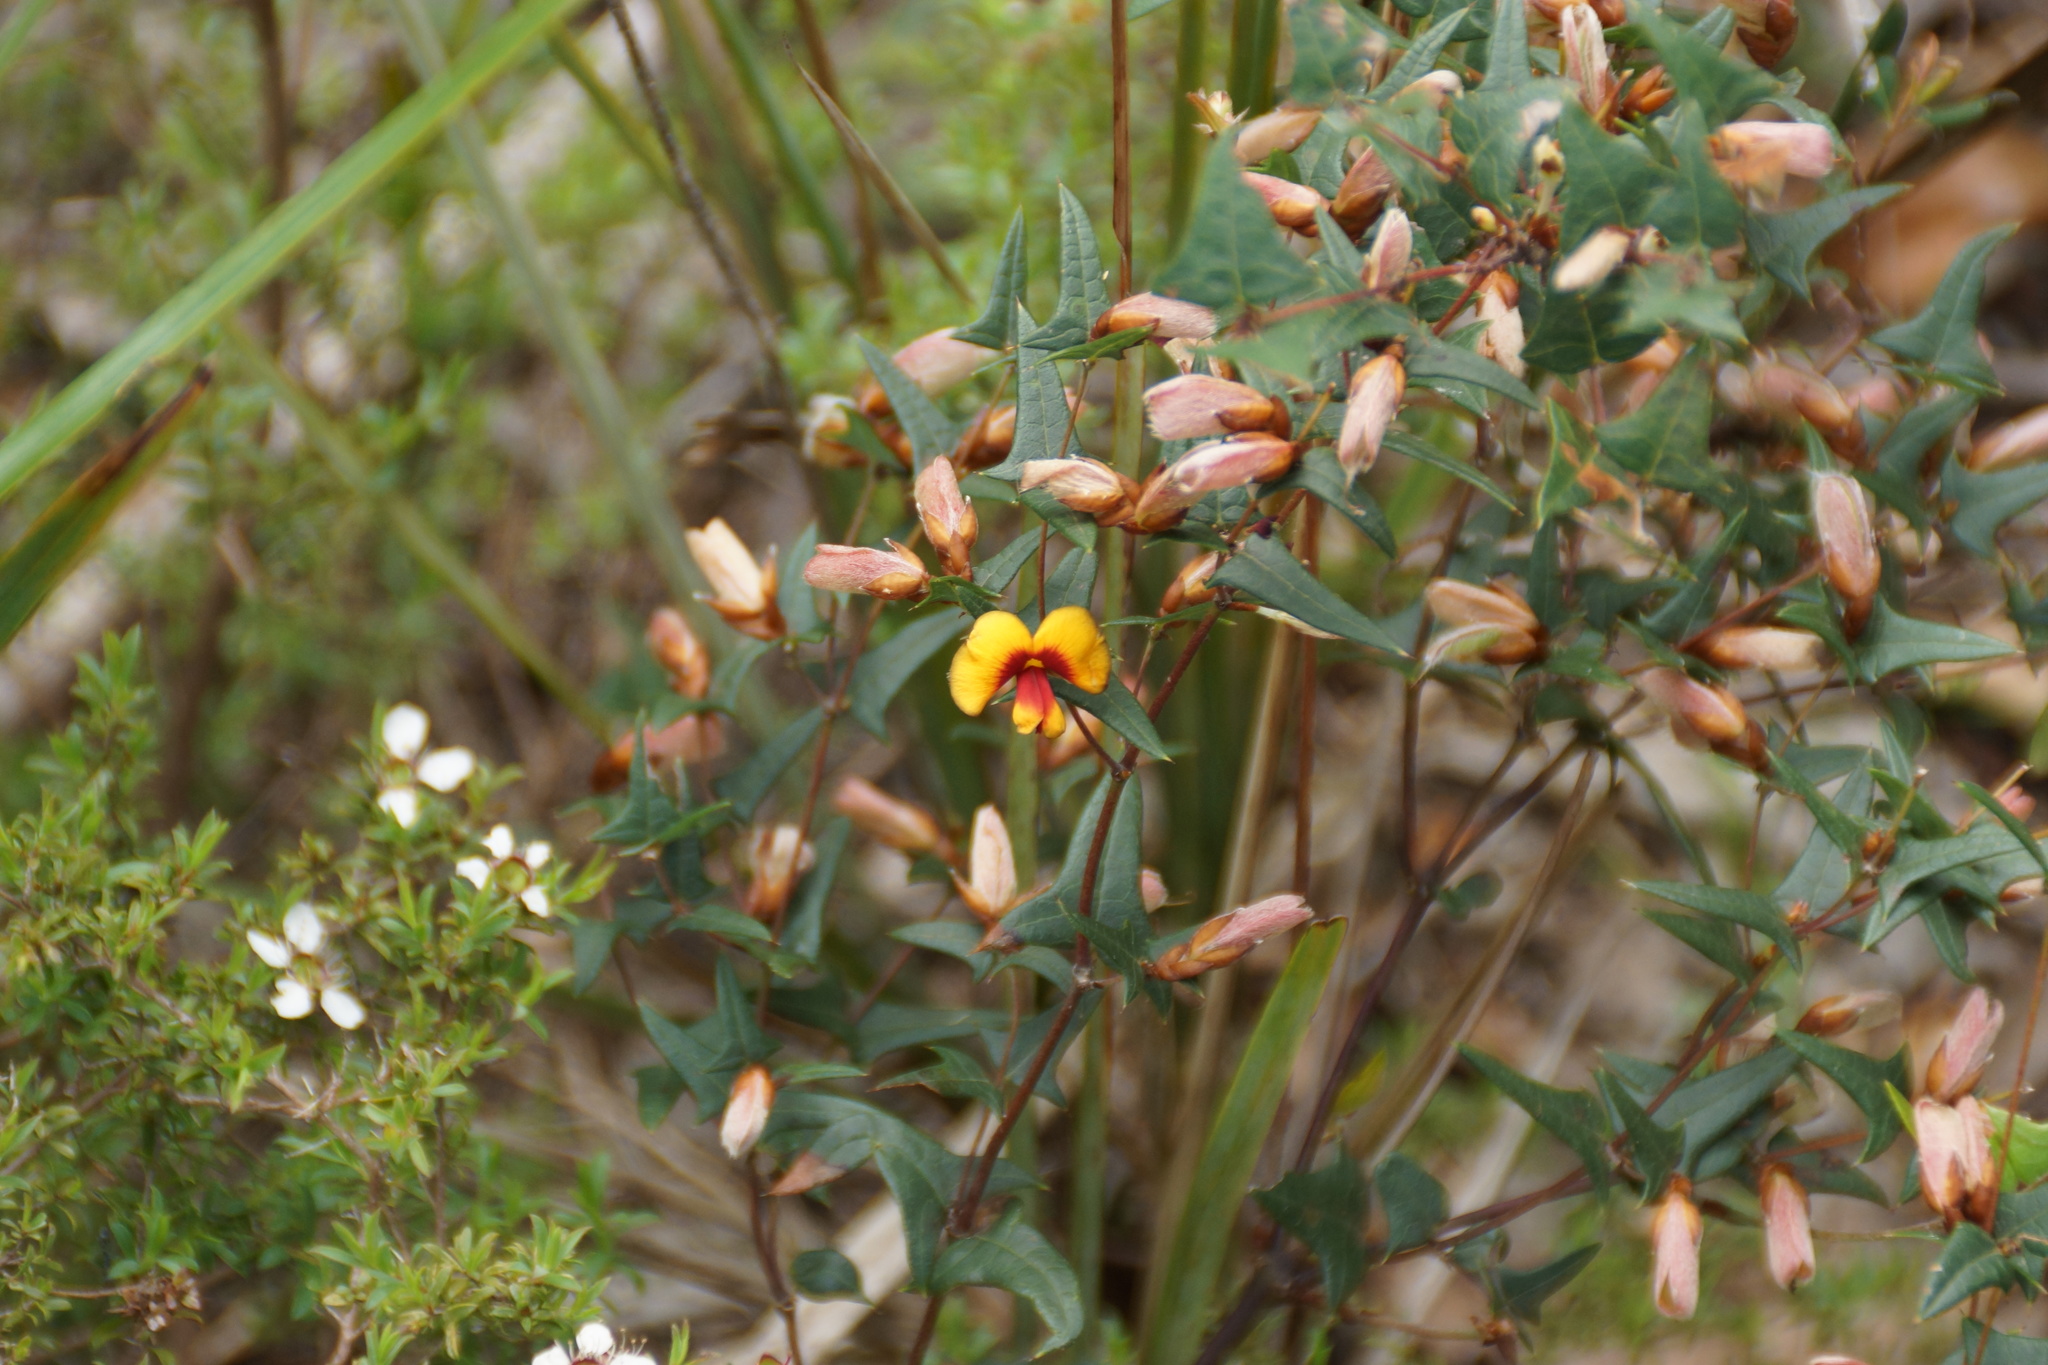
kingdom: Plantae
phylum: Tracheophyta
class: Magnoliopsida
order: Fabales
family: Fabaceae
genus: Platylobium
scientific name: Platylobium obtusangulum
